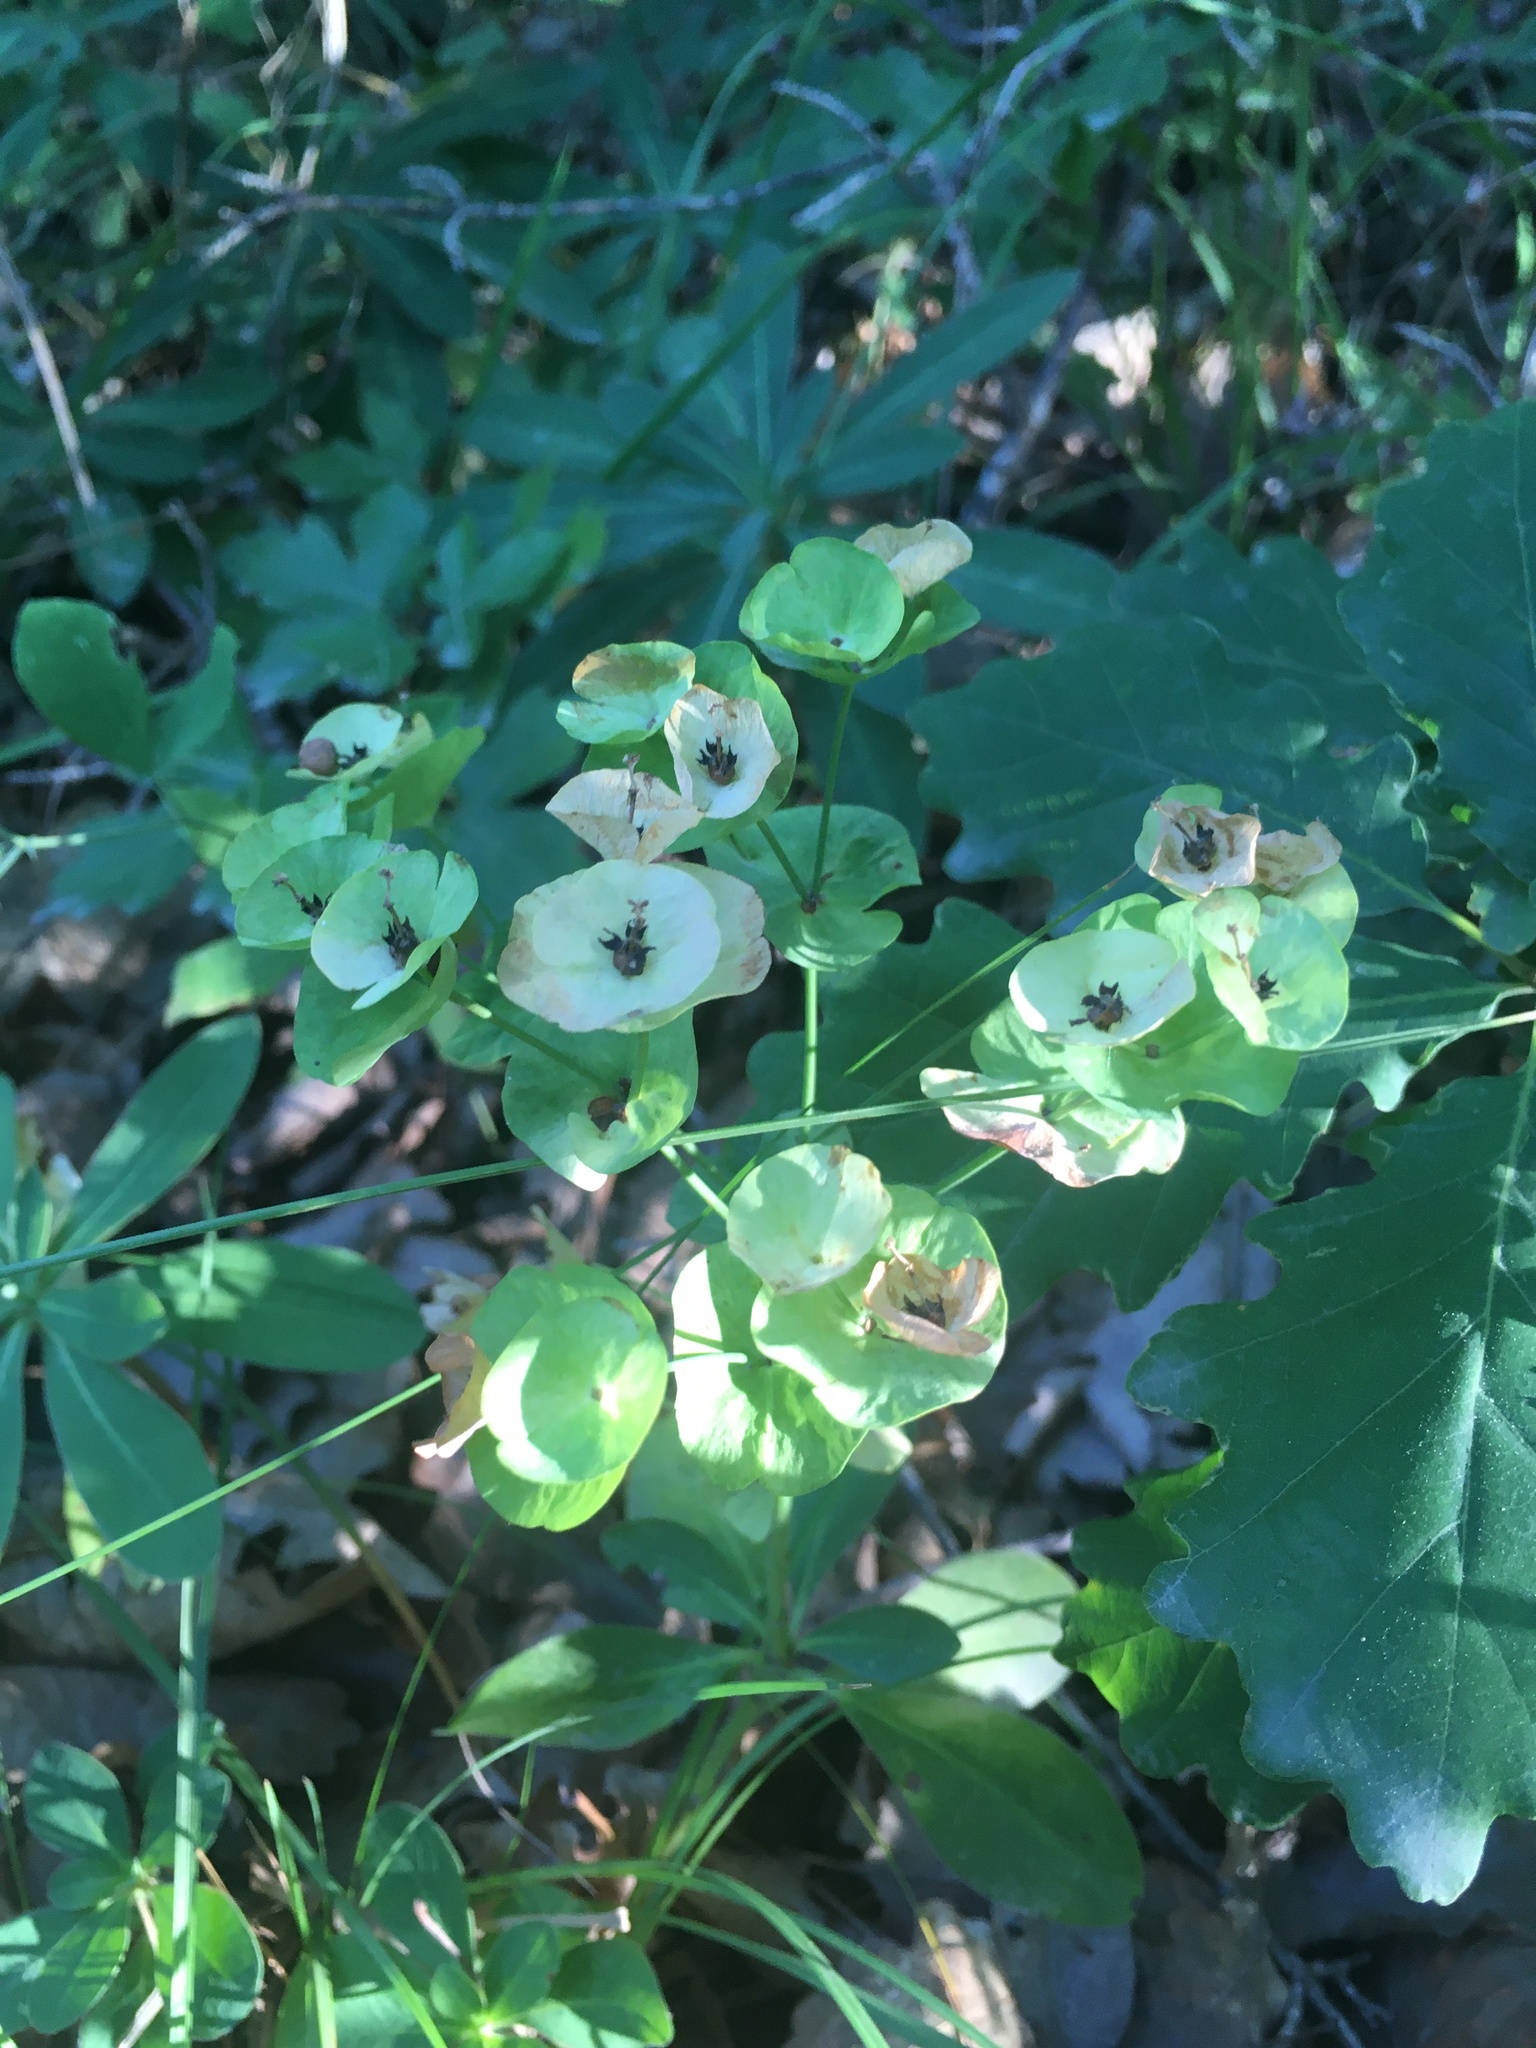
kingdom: Plantae
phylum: Tracheophyta
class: Magnoliopsida
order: Malpighiales
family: Euphorbiaceae
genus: Euphorbia
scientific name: Euphorbia amygdaloides
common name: Wood spurge
